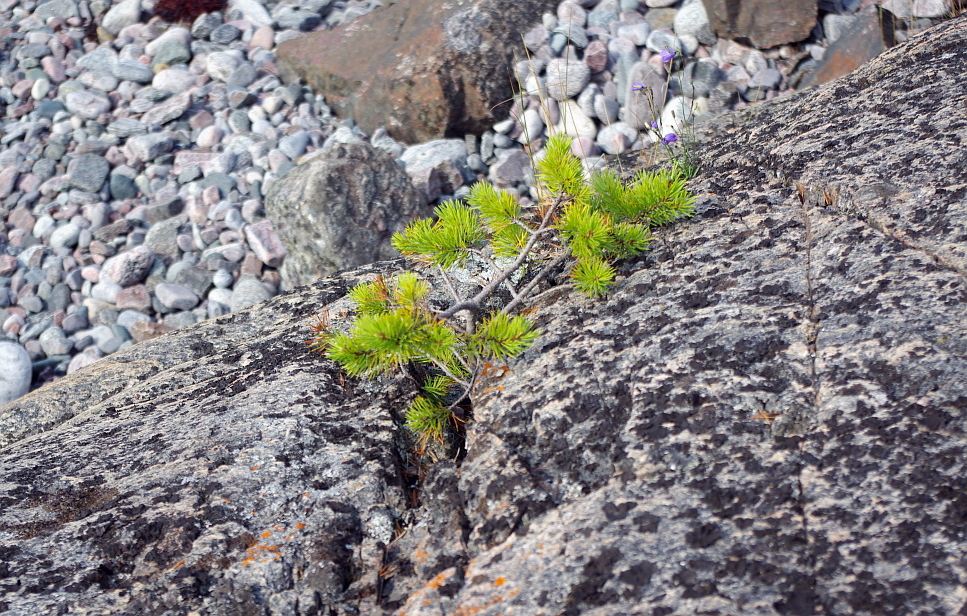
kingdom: Plantae
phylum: Tracheophyta
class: Pinopsida
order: Pinales
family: Pinaceae
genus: Pinus
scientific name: Pinus sylvestris
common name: Scots pine
